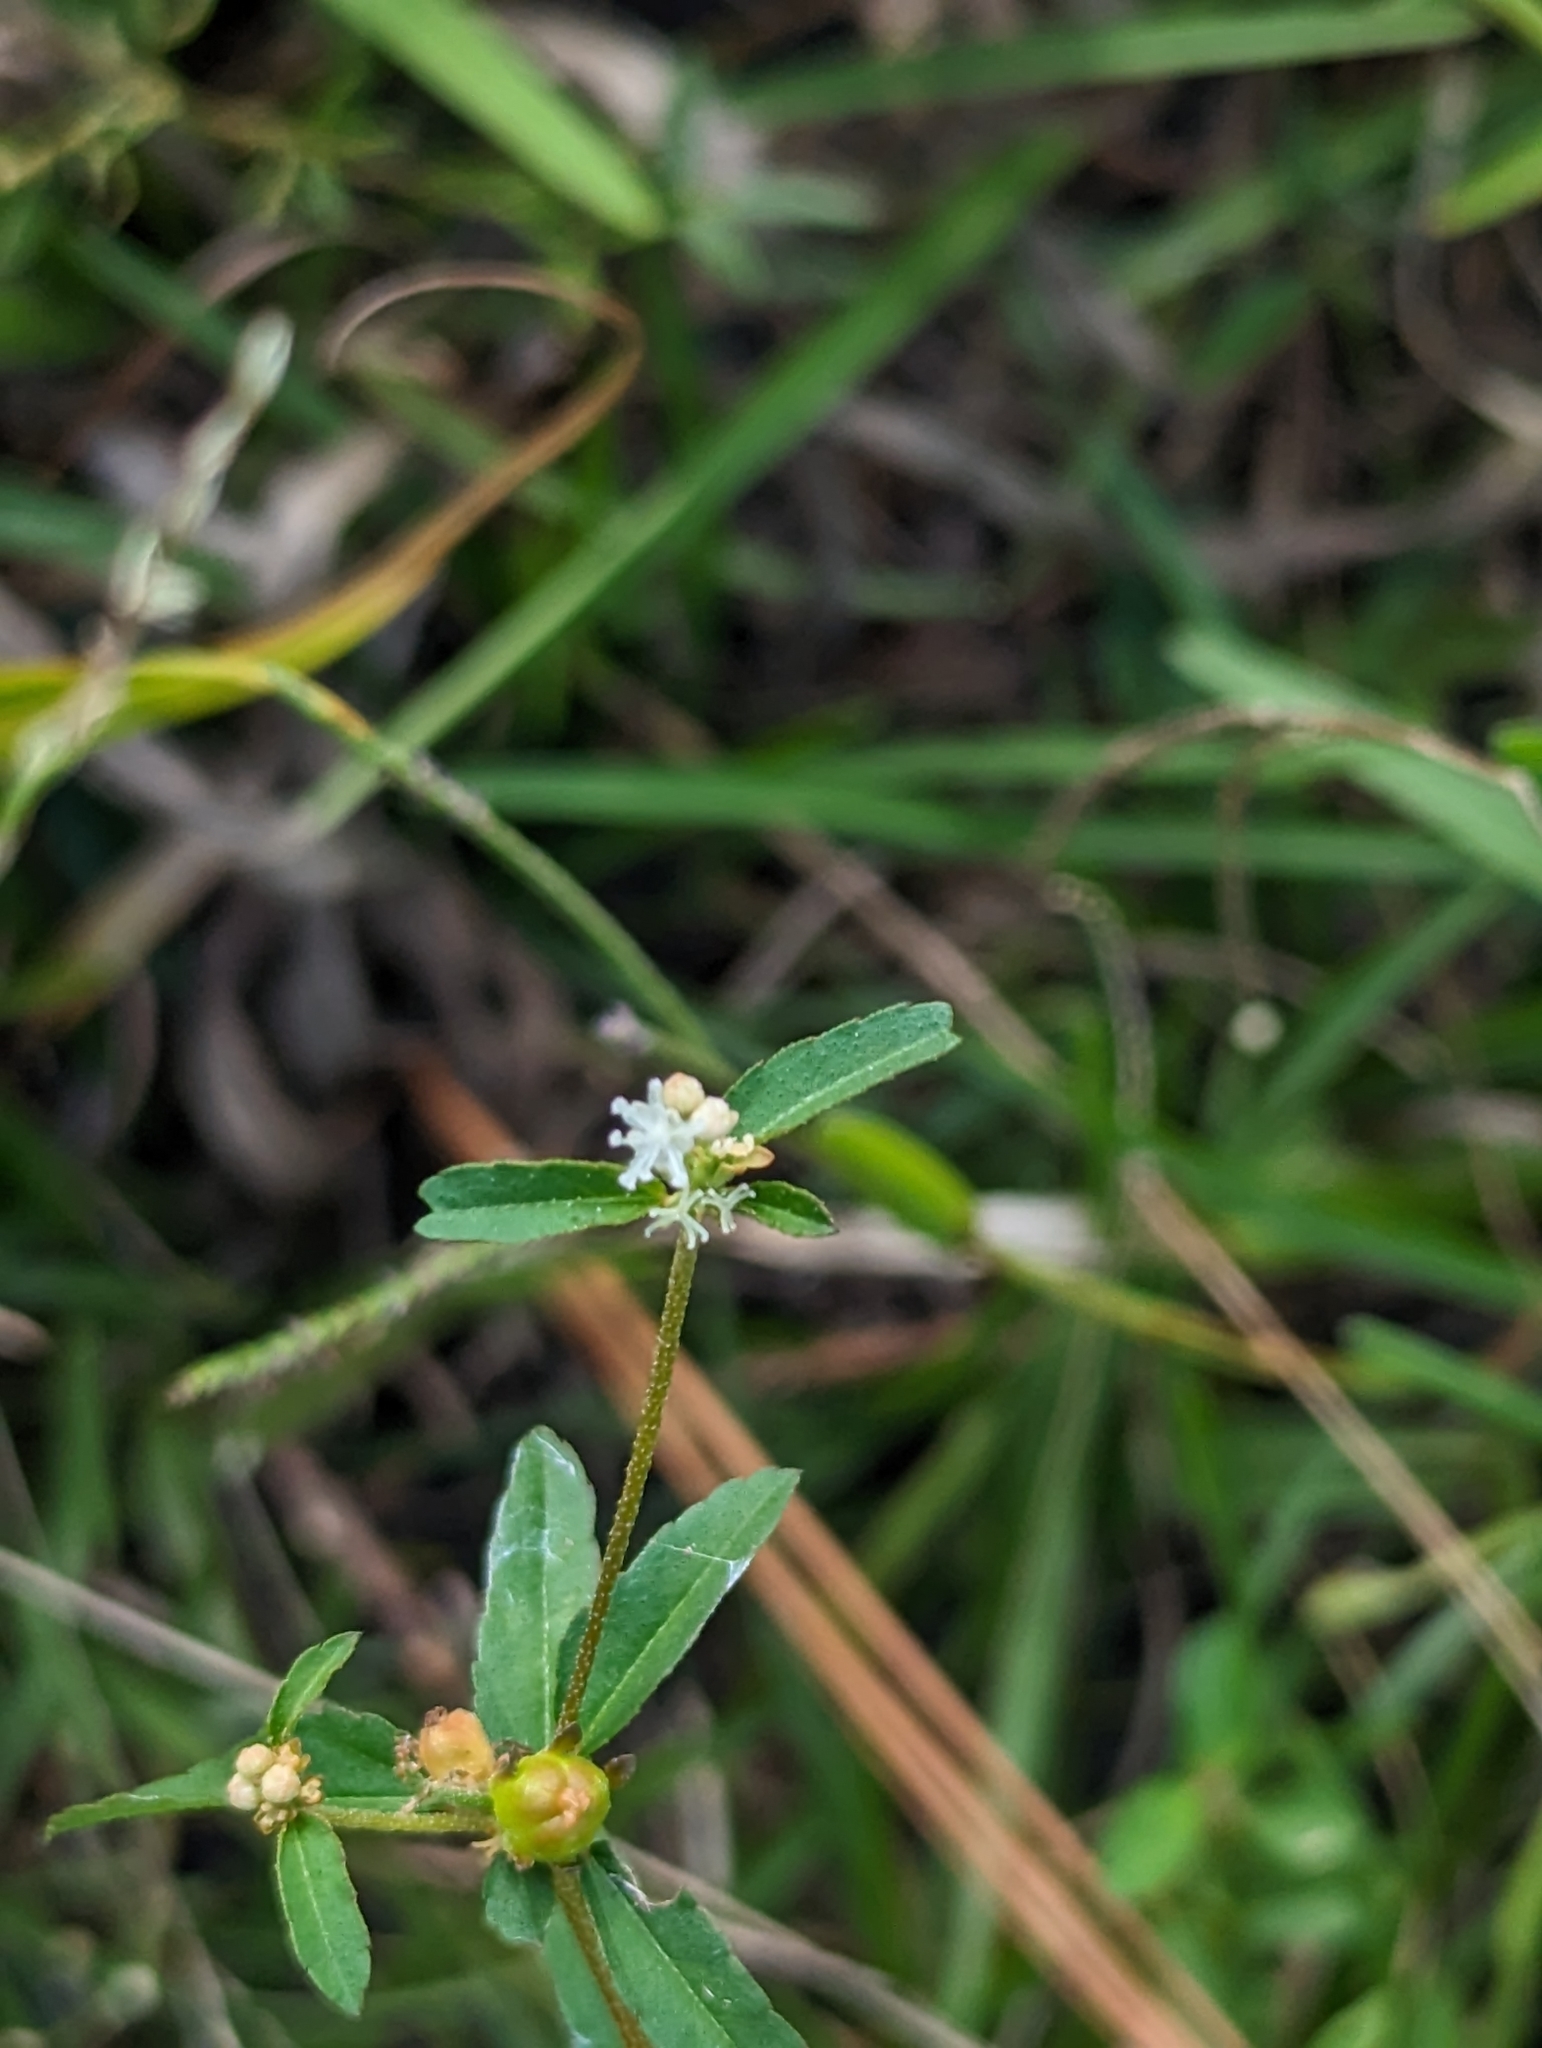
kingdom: Plantae
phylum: Tracheophyta
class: Magnoliopsida
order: Malpighiales
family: Euphorbiaceae
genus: Croton
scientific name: Croton glandulosus
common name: Tropic croton
